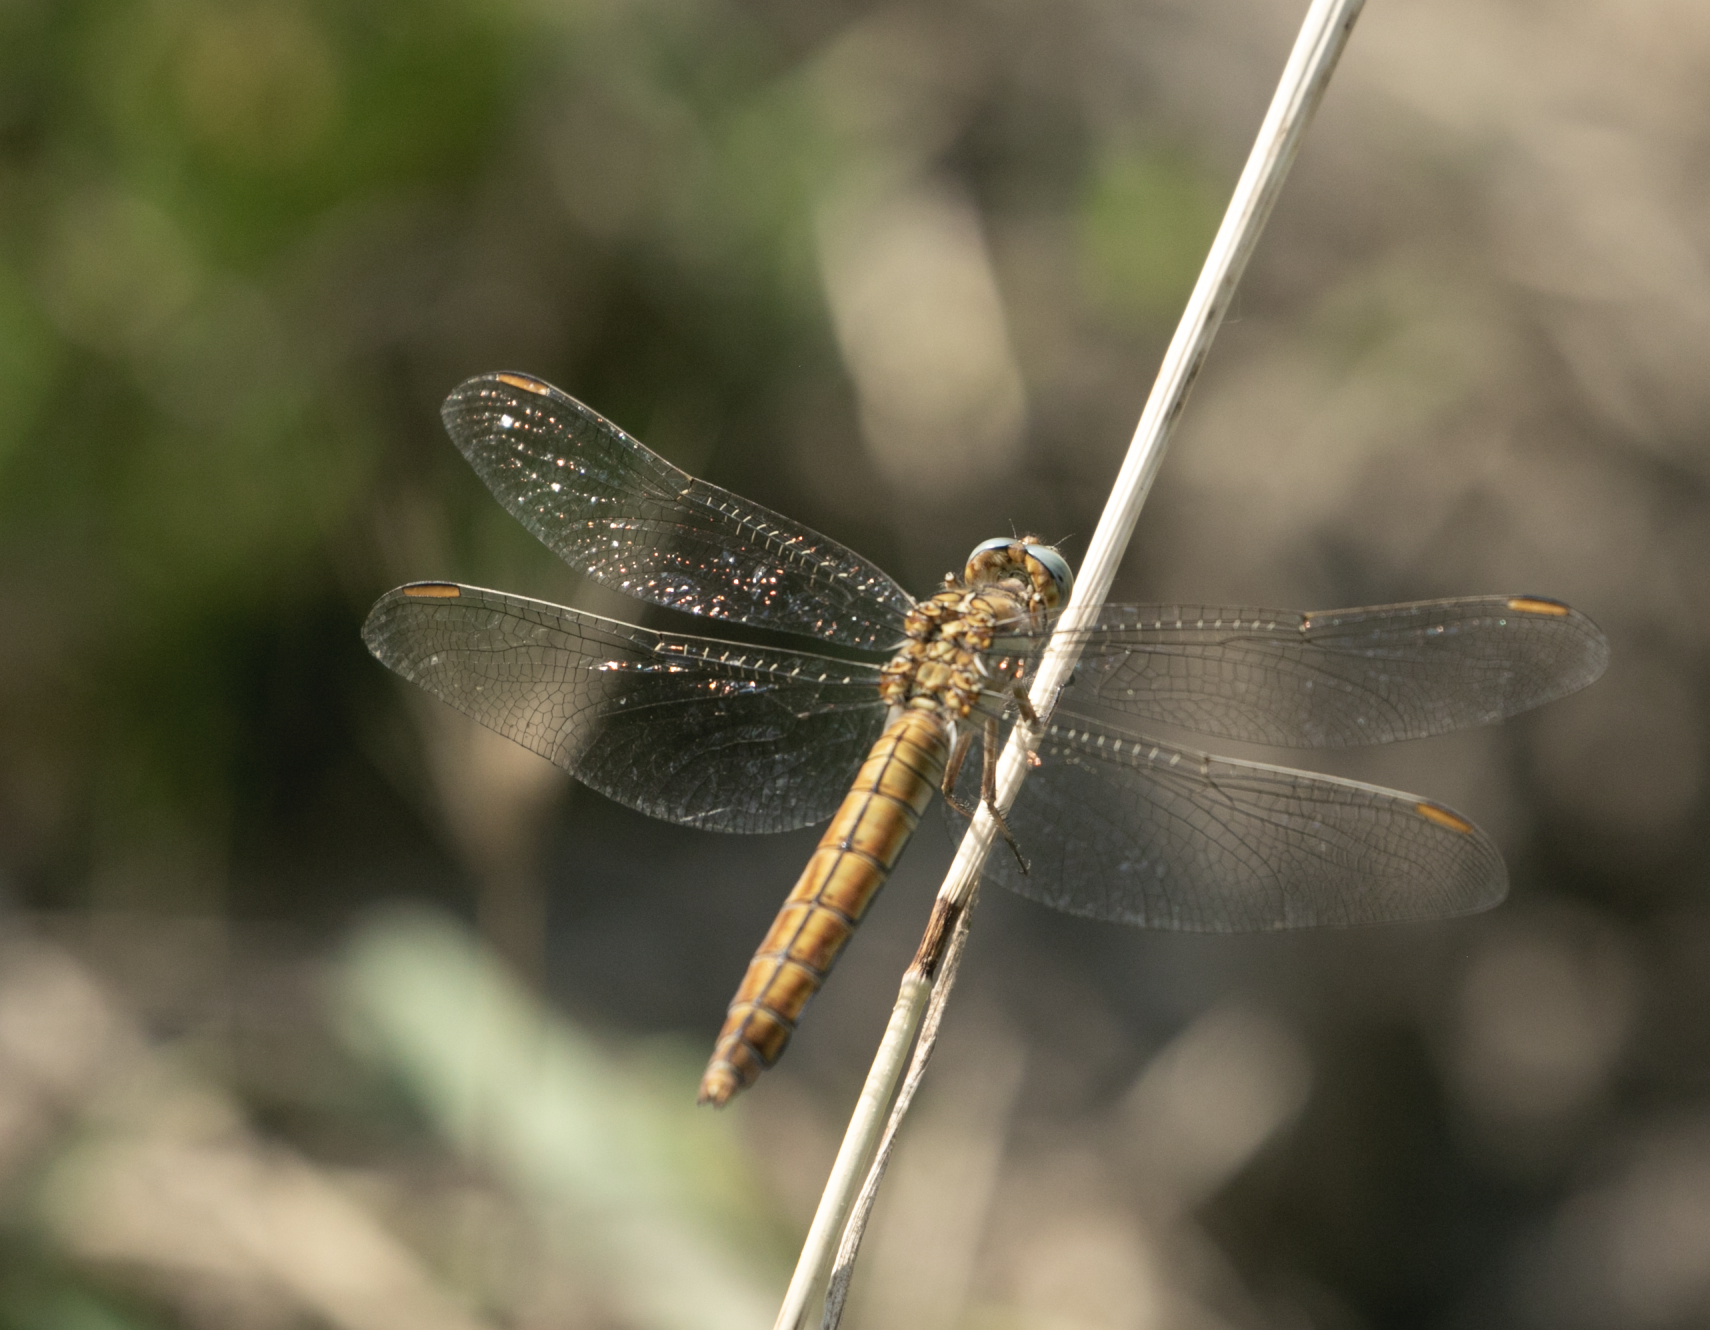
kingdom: Animalia
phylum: Arthropoda
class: Insecta
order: Odonata
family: Libellulidae
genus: Orthetrum
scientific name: Orthetrum brunneum
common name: Southern skimmer
